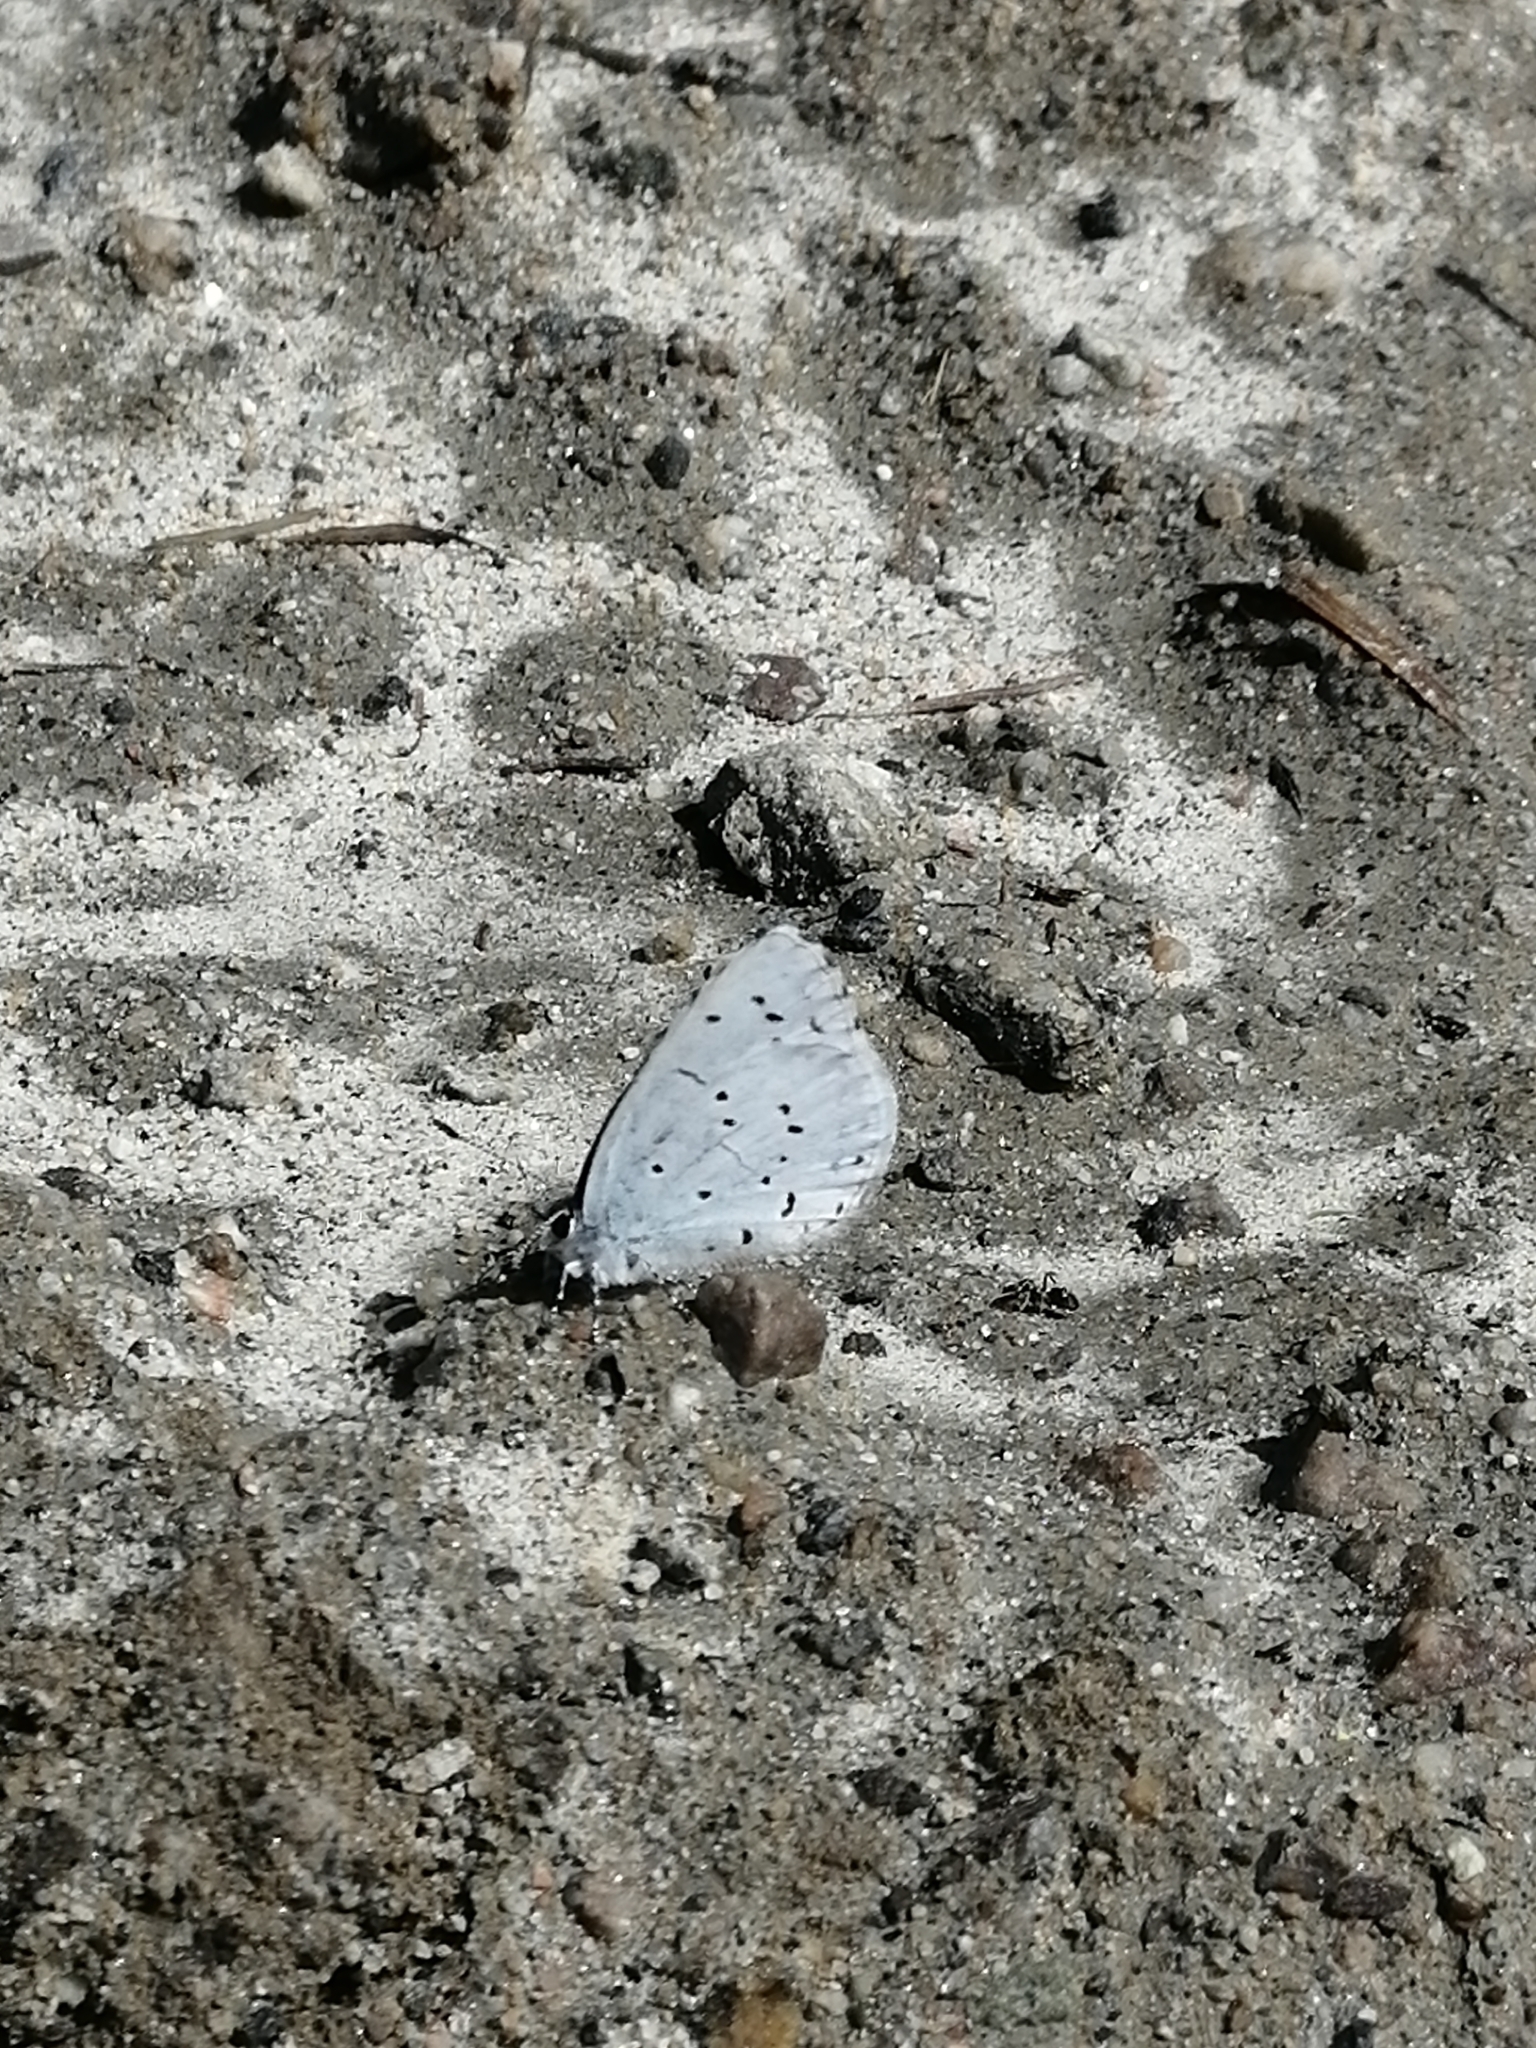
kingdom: Animalia
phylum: Arthropoda
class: Insecta
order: Lepidoptera
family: Lycaenidae
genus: Celastrina
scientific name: Celastrina argiolus
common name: Holly blue
